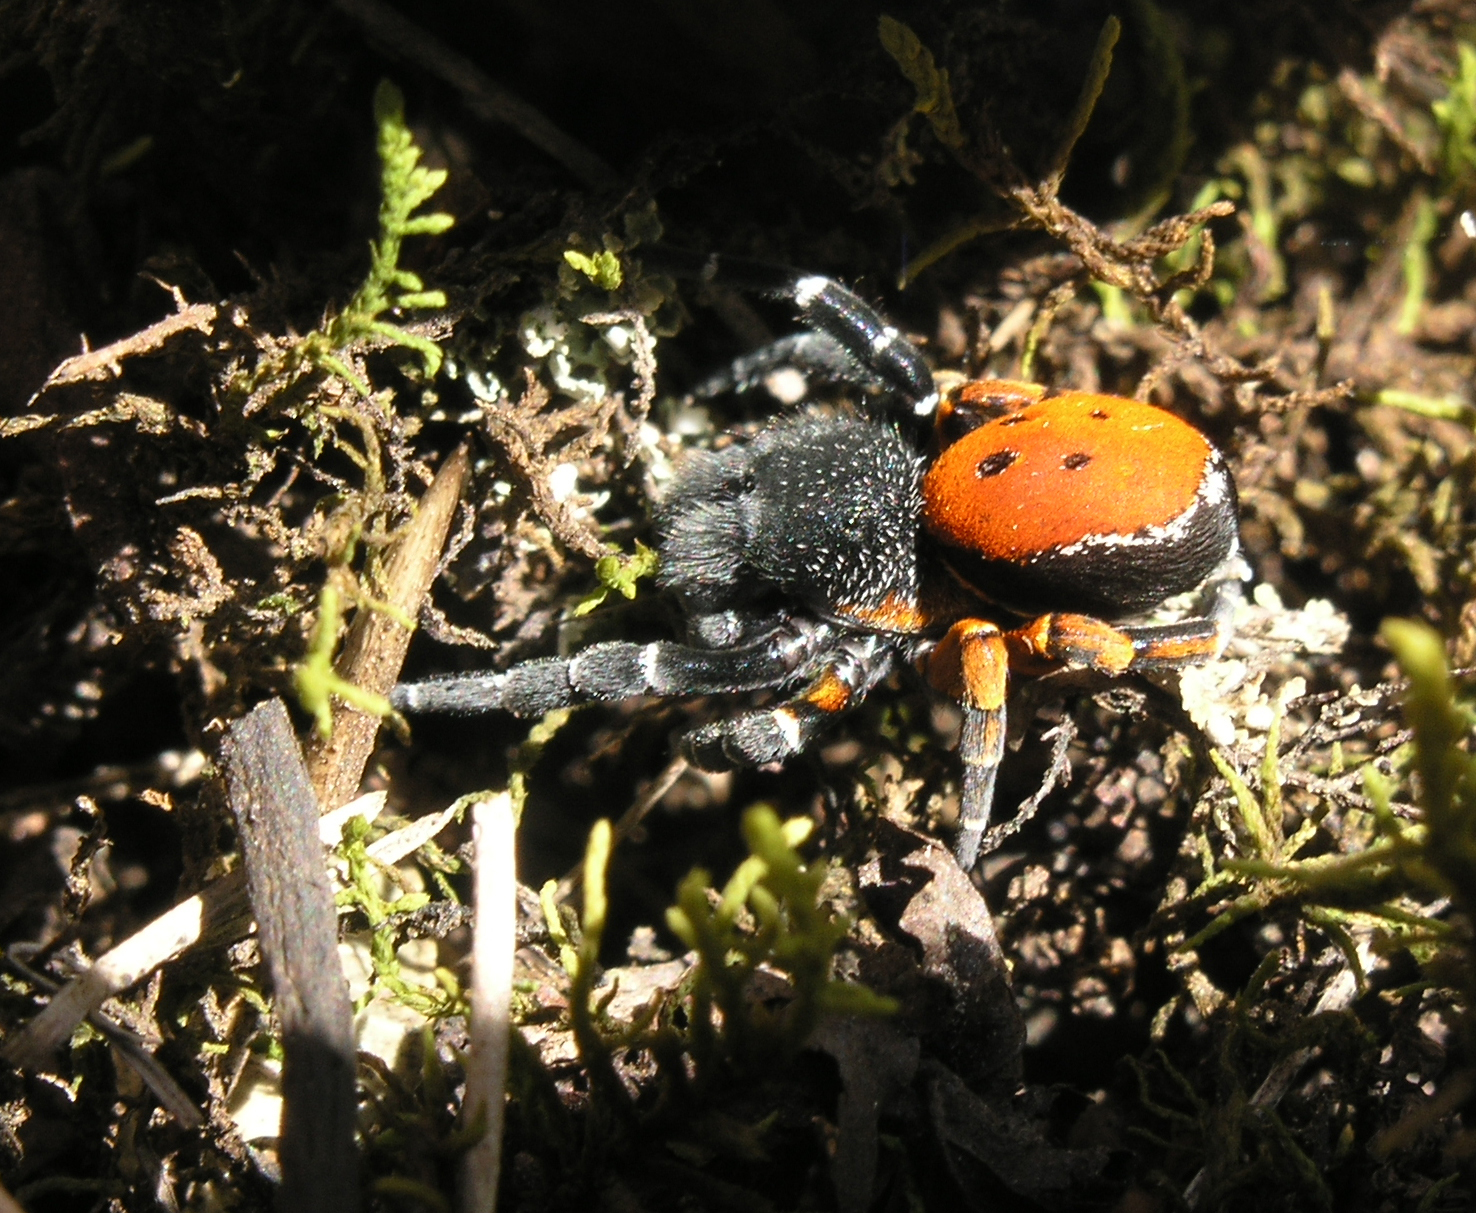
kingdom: Animalia
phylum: Arthropoda
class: Arachnida
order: Araneae
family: Eresidae
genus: Eresus
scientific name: Eresus kollari
